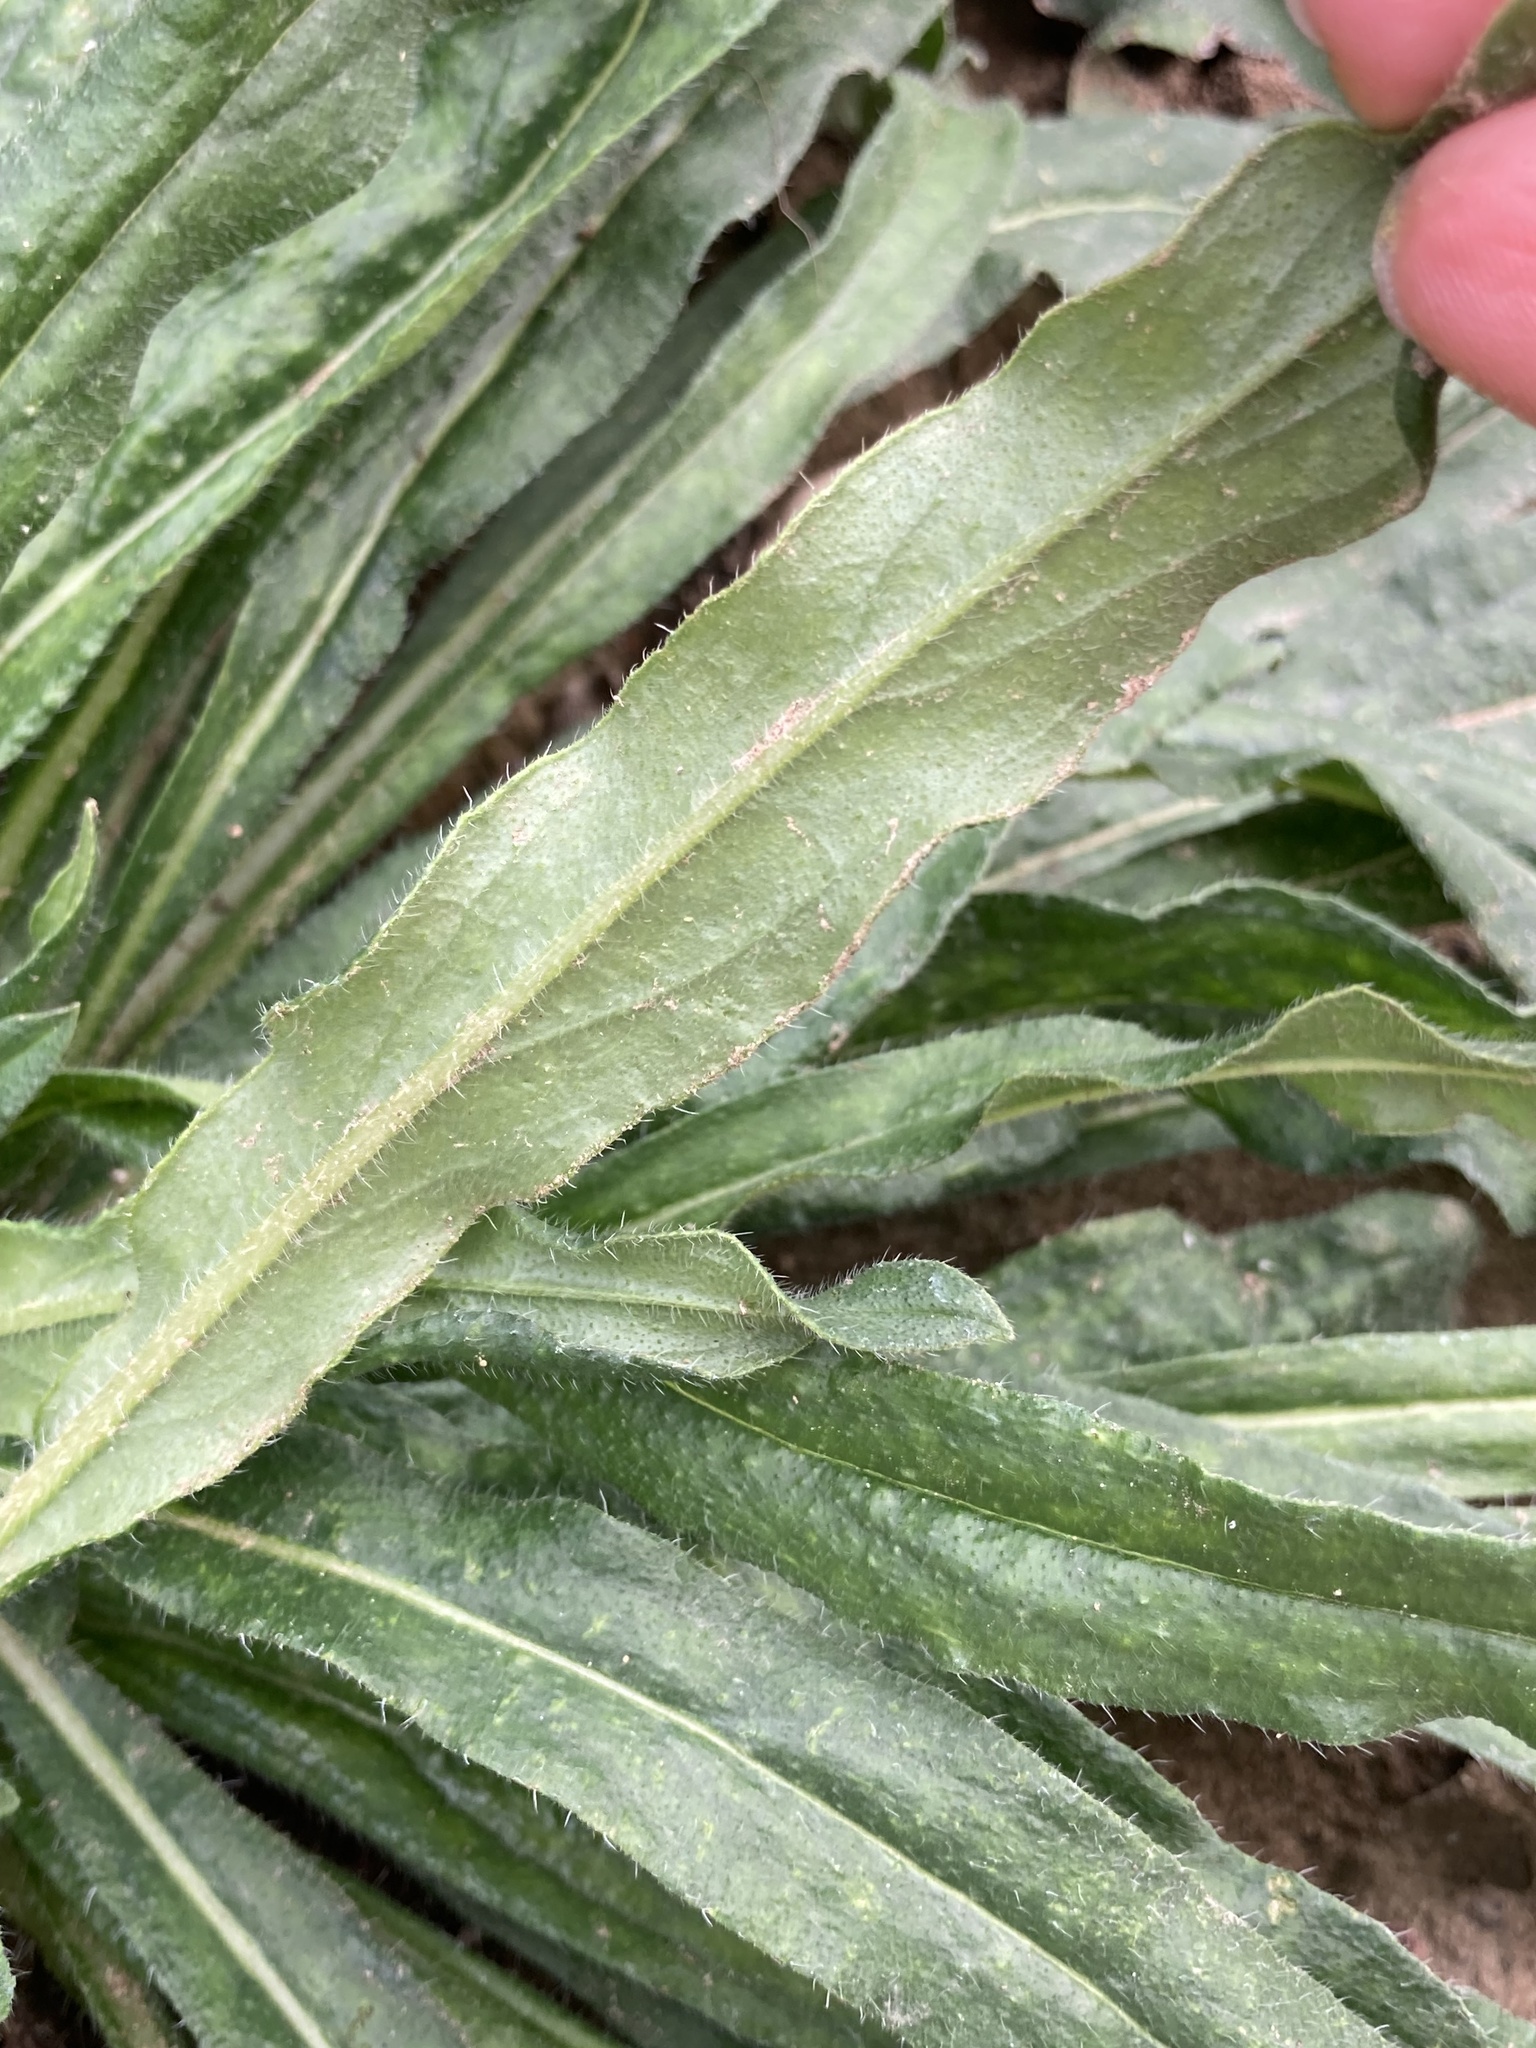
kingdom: Plantae
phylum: Tracheophyta
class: Magnoliopsida
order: Boraginales
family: Boraginaceae
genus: Echium
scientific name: Echium vulgare
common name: Common viper's bugloss
